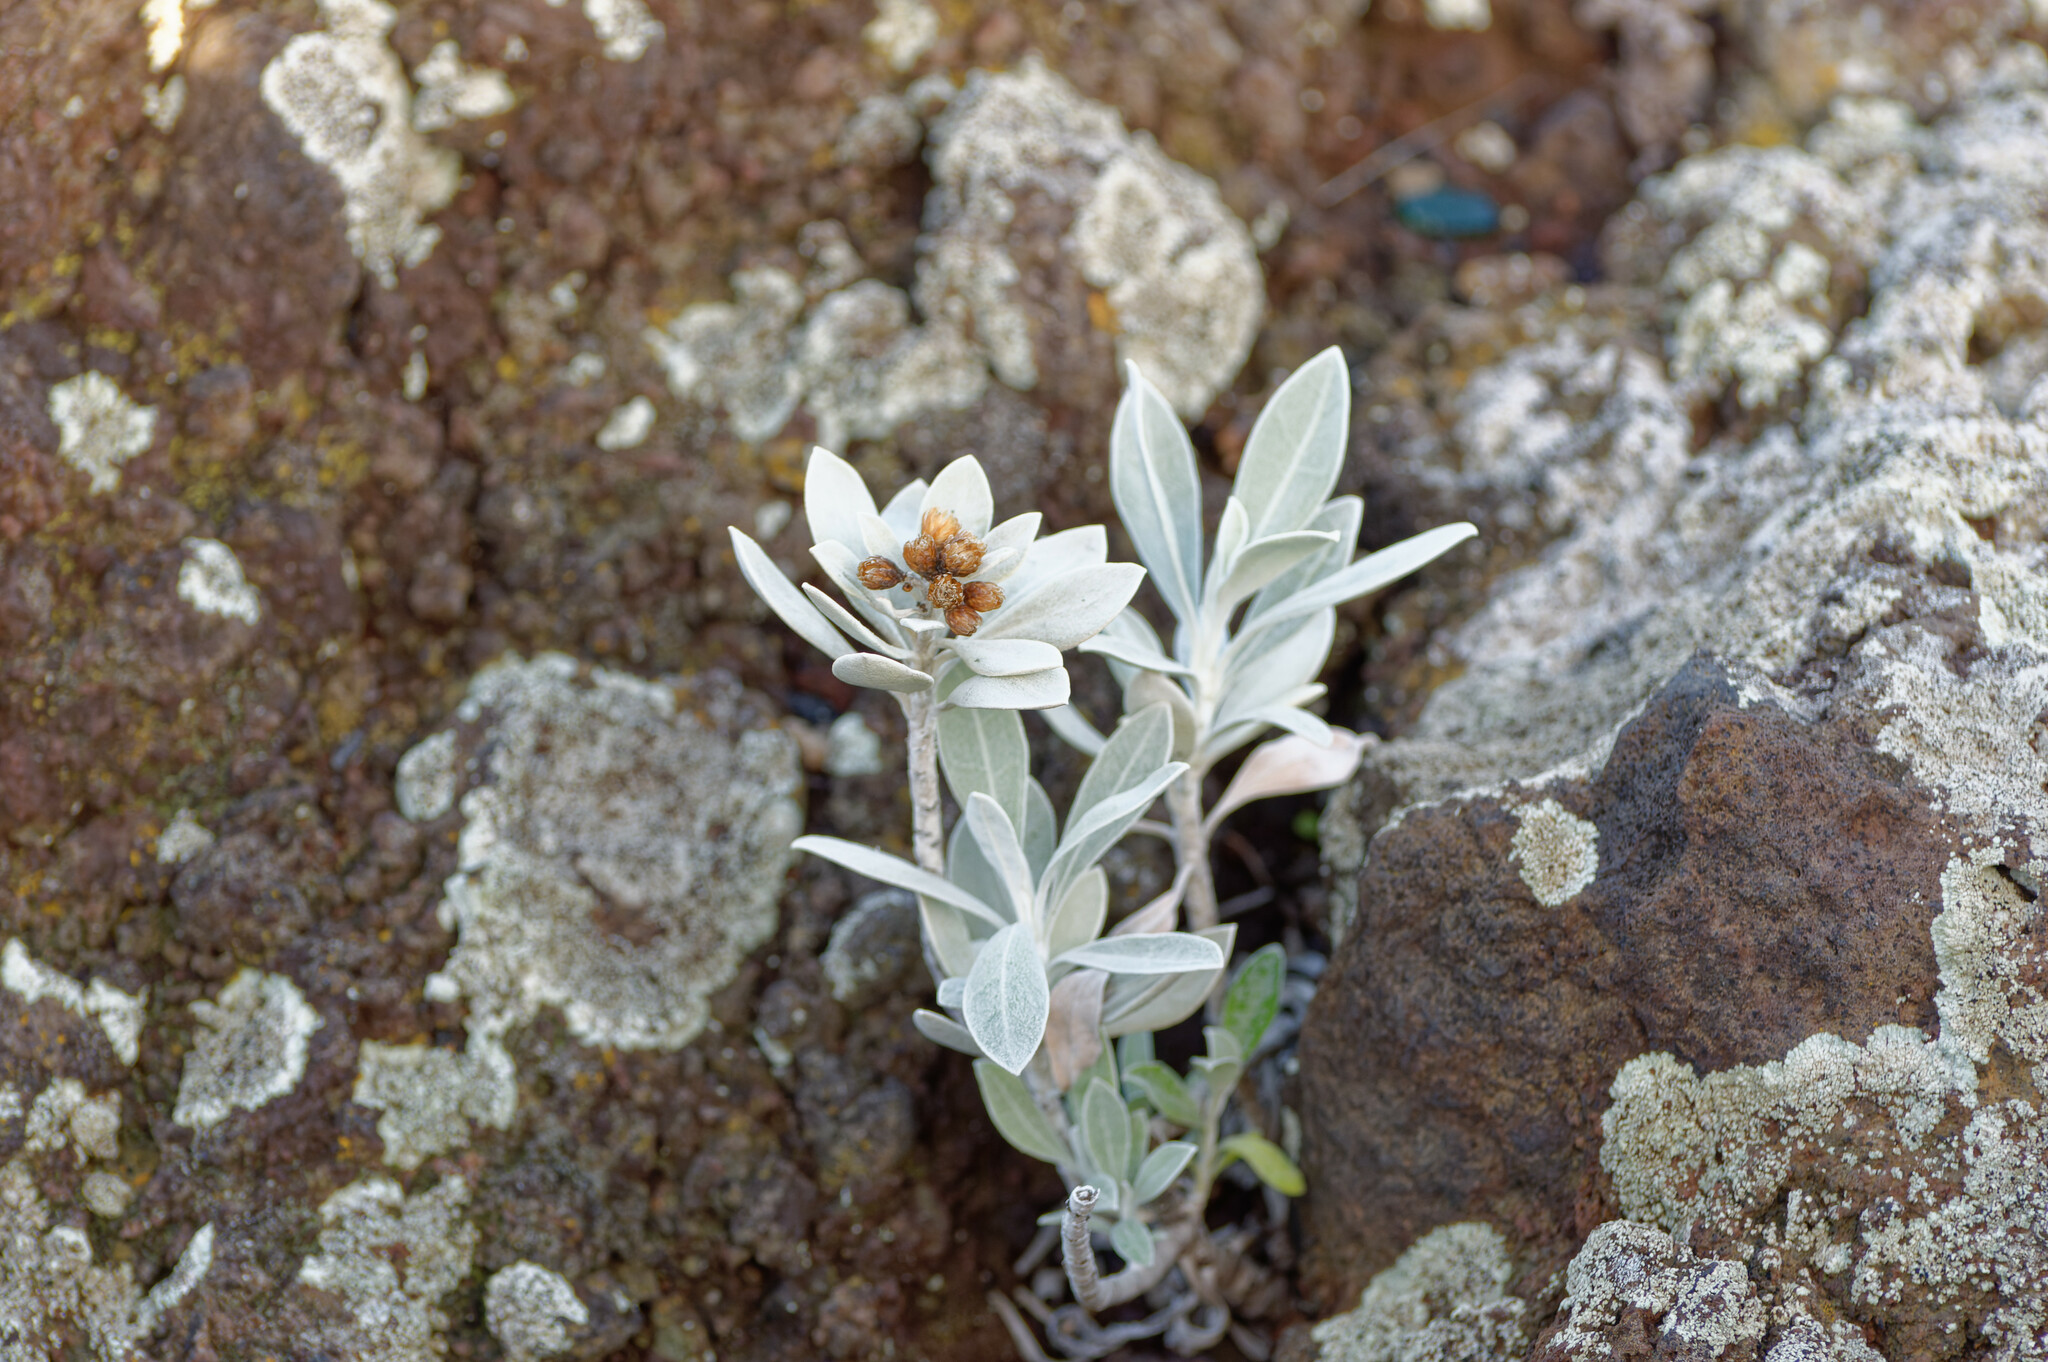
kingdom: Plantae
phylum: Tracheophyta
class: Magnoliopsida
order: Asterales
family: Asteraceae
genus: Helichrysum
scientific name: Helichrysum obconicum
